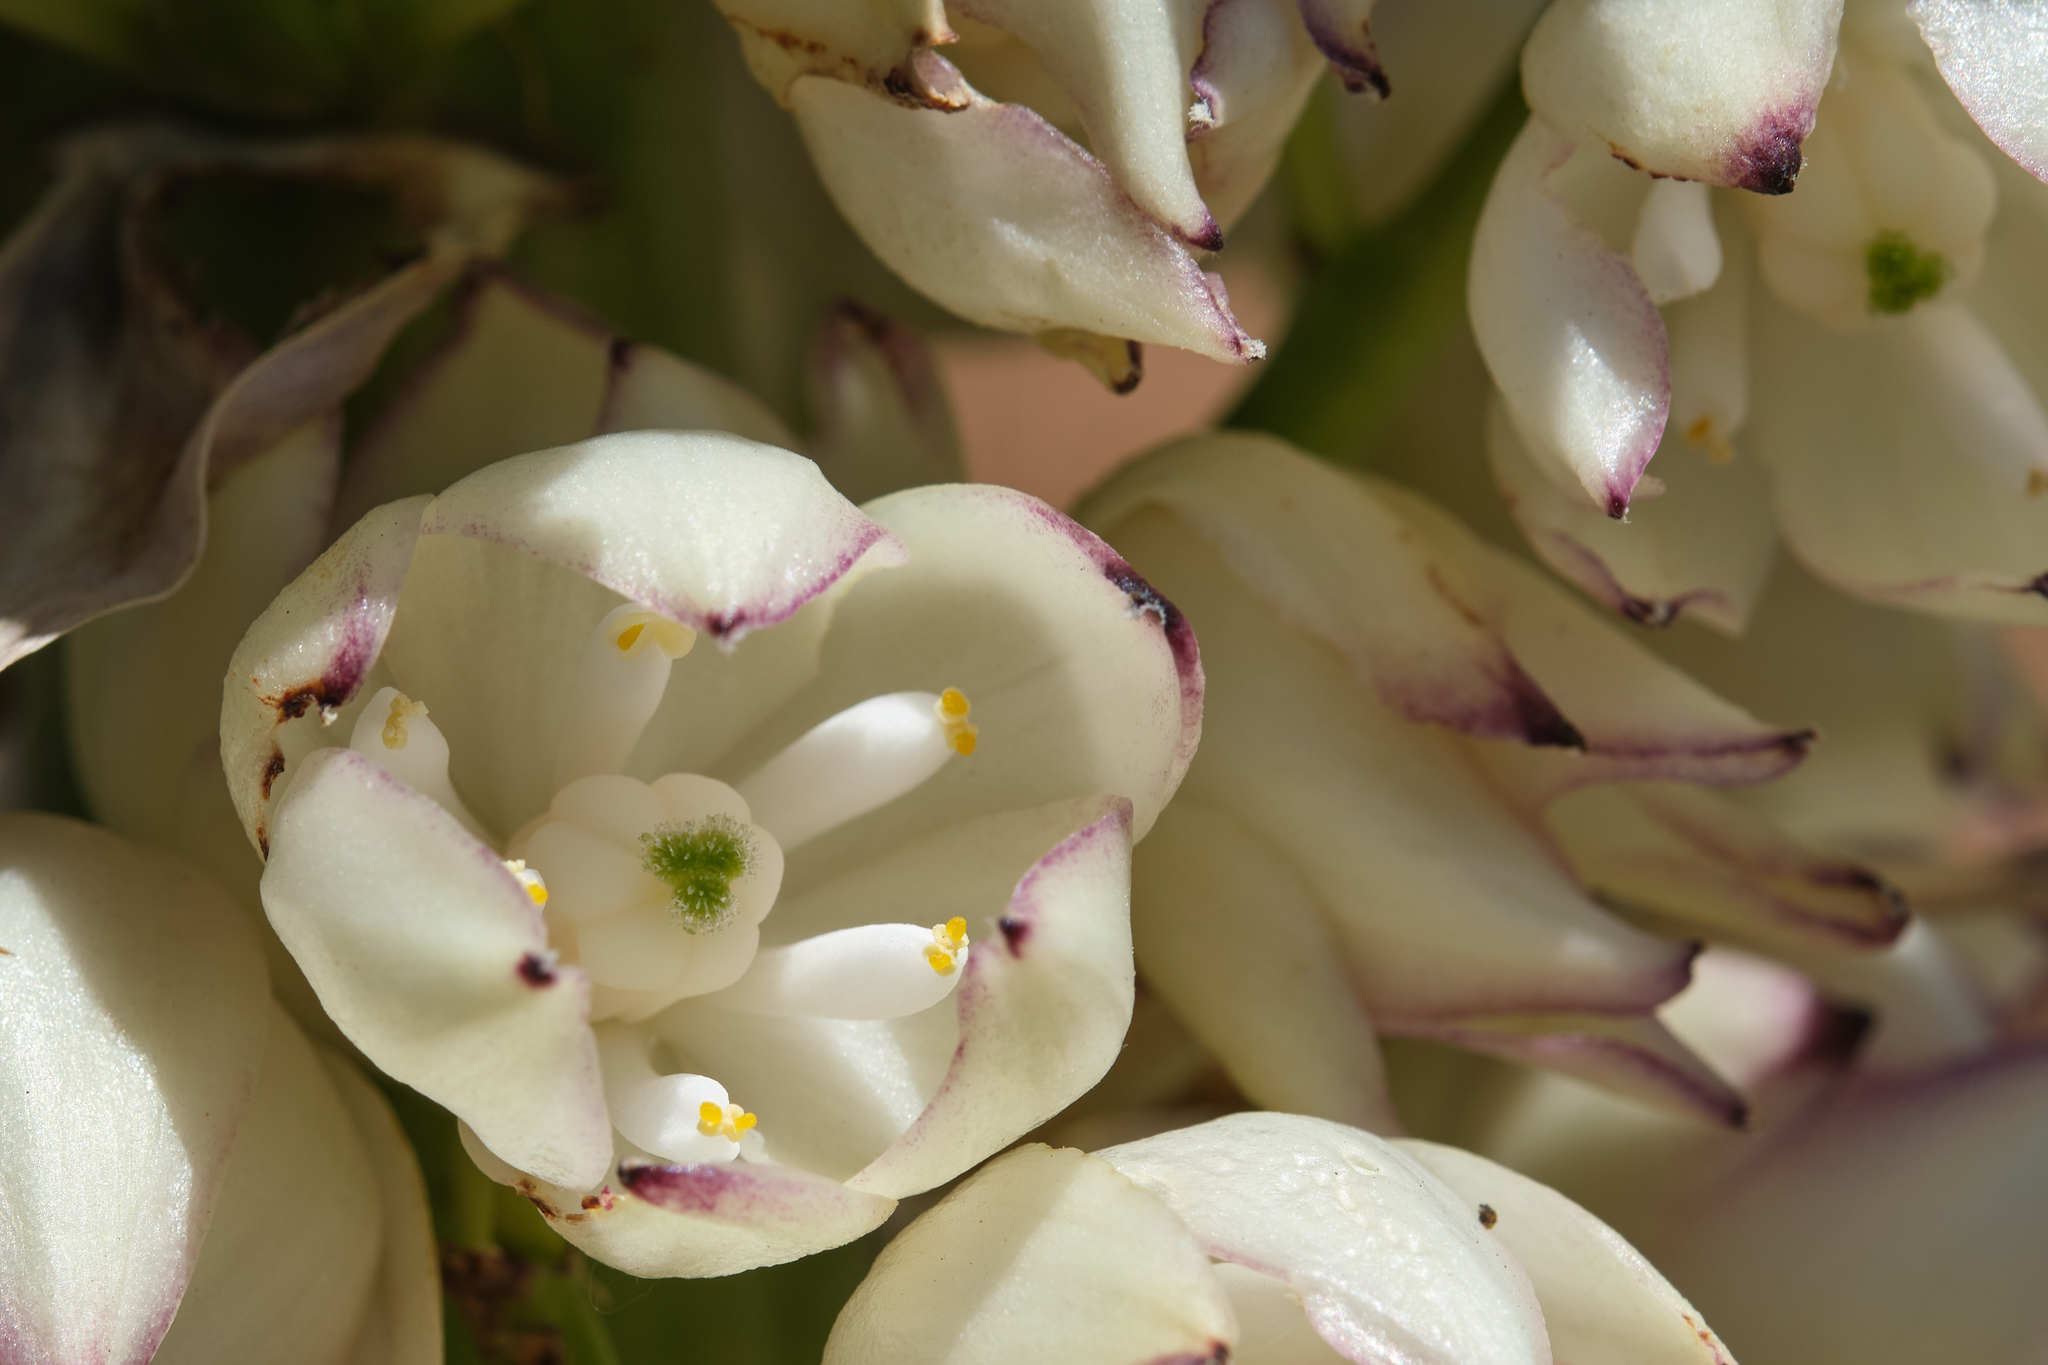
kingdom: Plantae
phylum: Tracheophyta
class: Liliopsida
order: Asparagales
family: Asparagaceae
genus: Hesperoyucca
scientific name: Hesperoyucca whipplei
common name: Our lord's-candle
